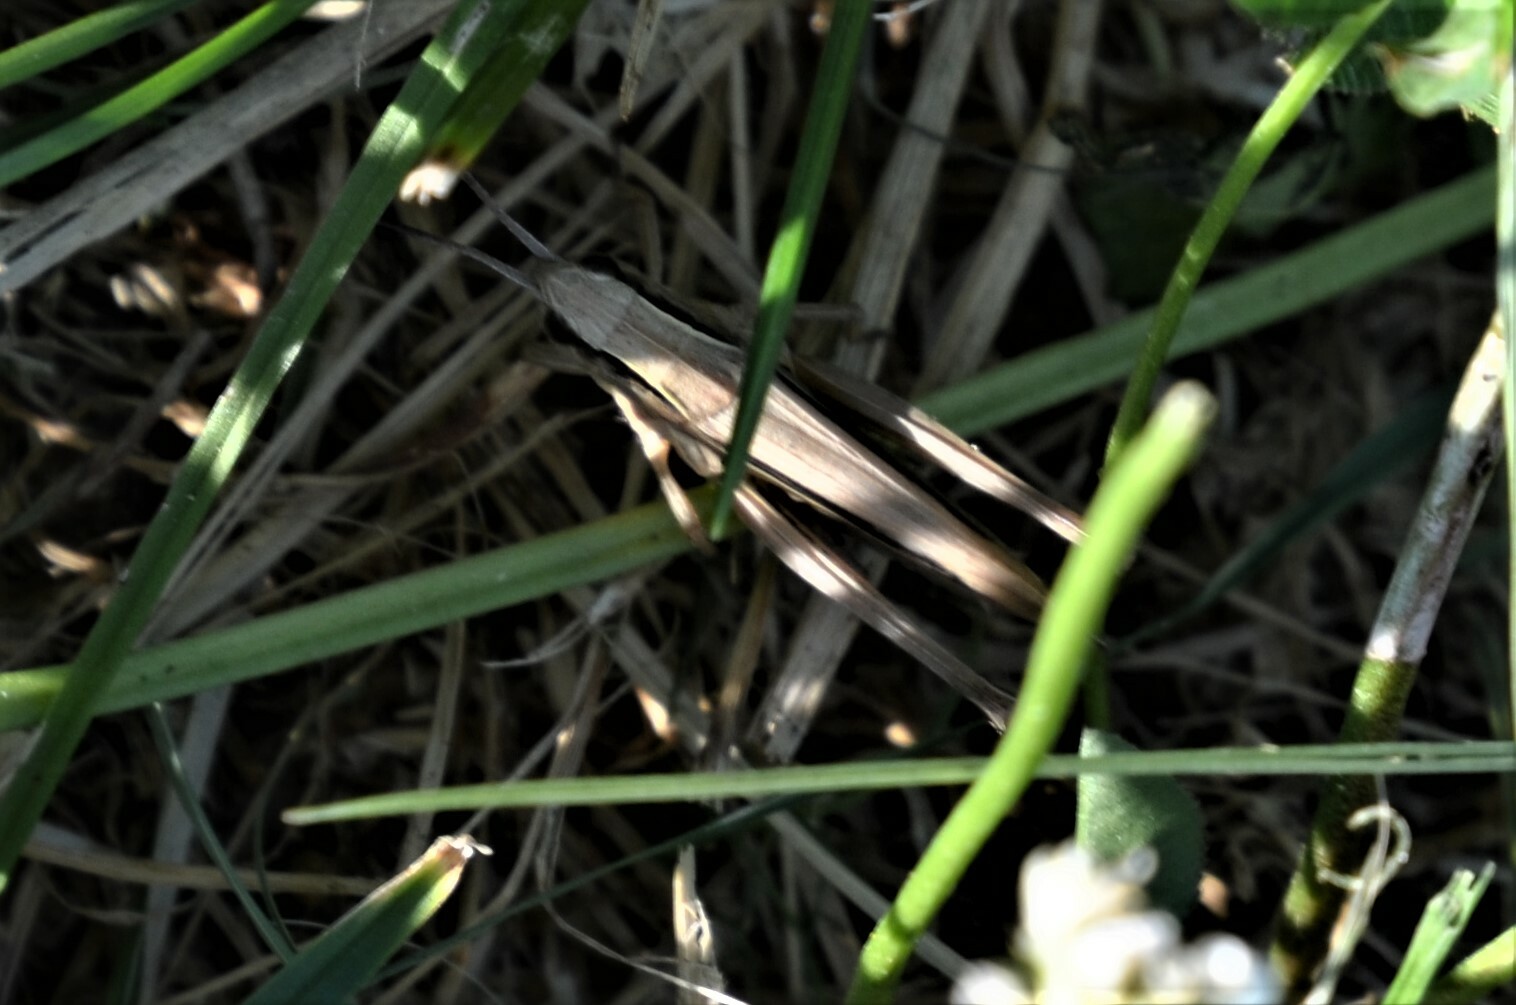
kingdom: Animalia
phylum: Arthropoda
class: Insecta
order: Orthoptera
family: Acrididae
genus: Chorthippus
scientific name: Chorthippus albomarginatus
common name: Lesser marsh grasshopper
